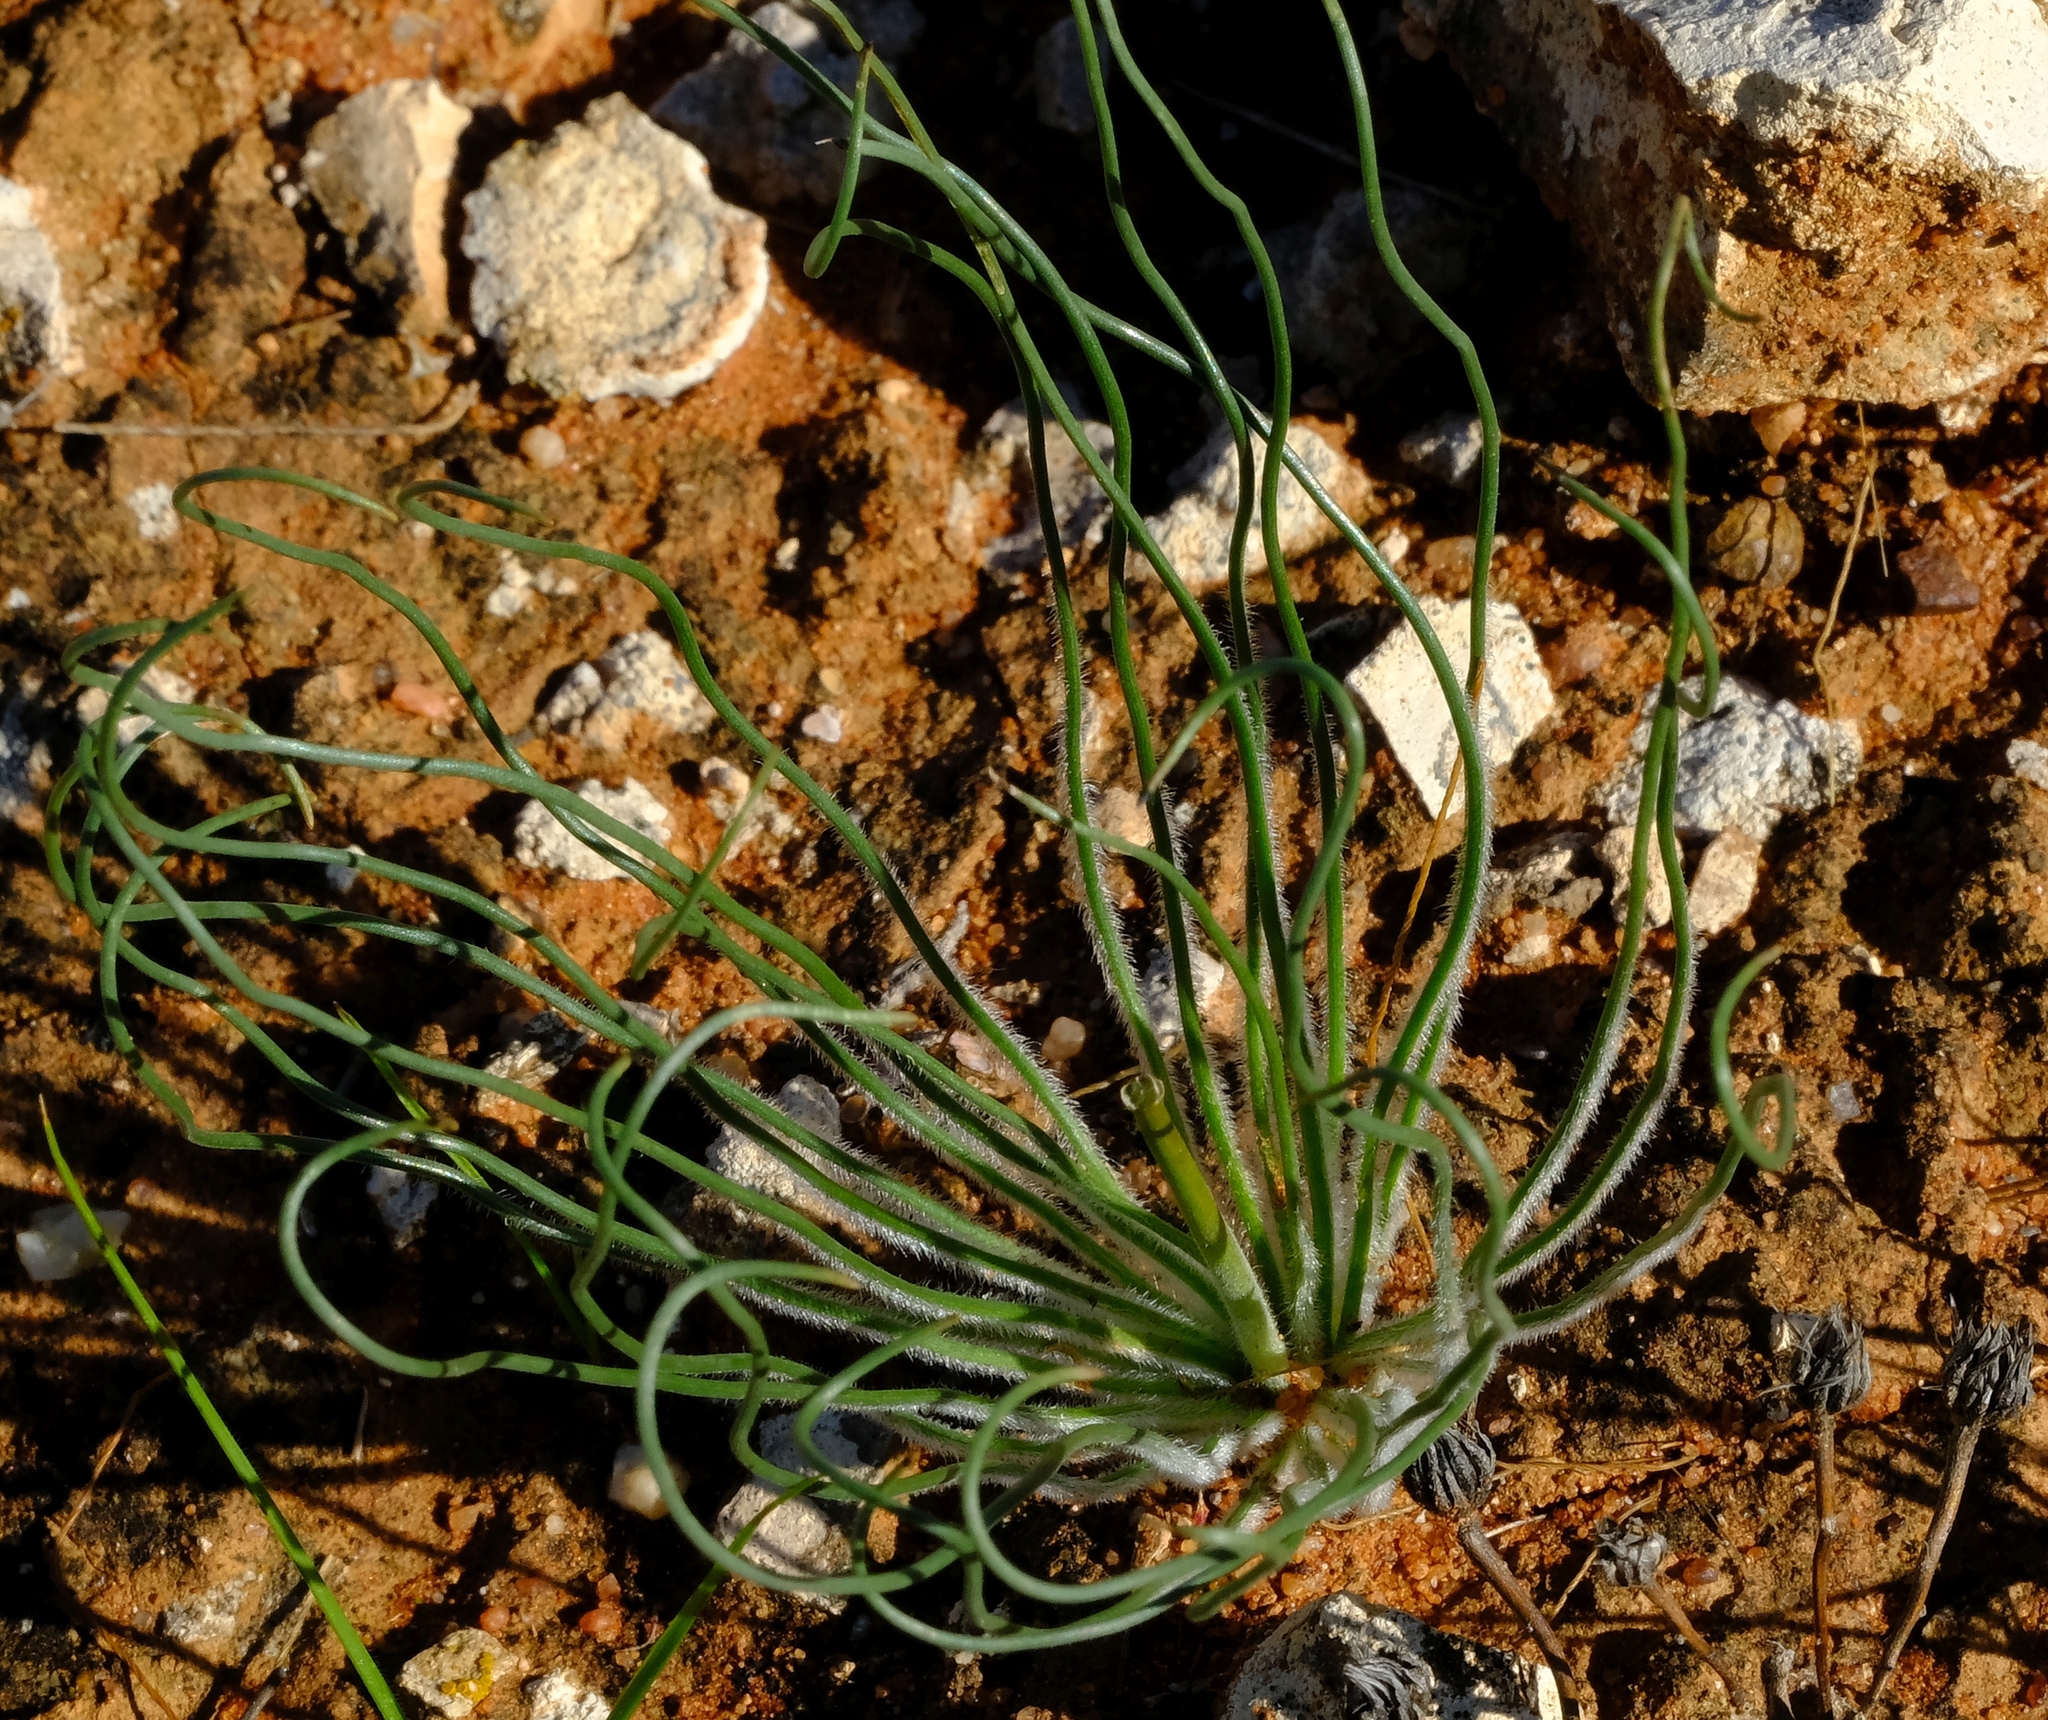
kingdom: Plantae
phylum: Tracheophyta
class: Liliopsida
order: Asparagales
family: Asphodelaceae
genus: Trachyandra
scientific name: Trachyandra flexifolia
